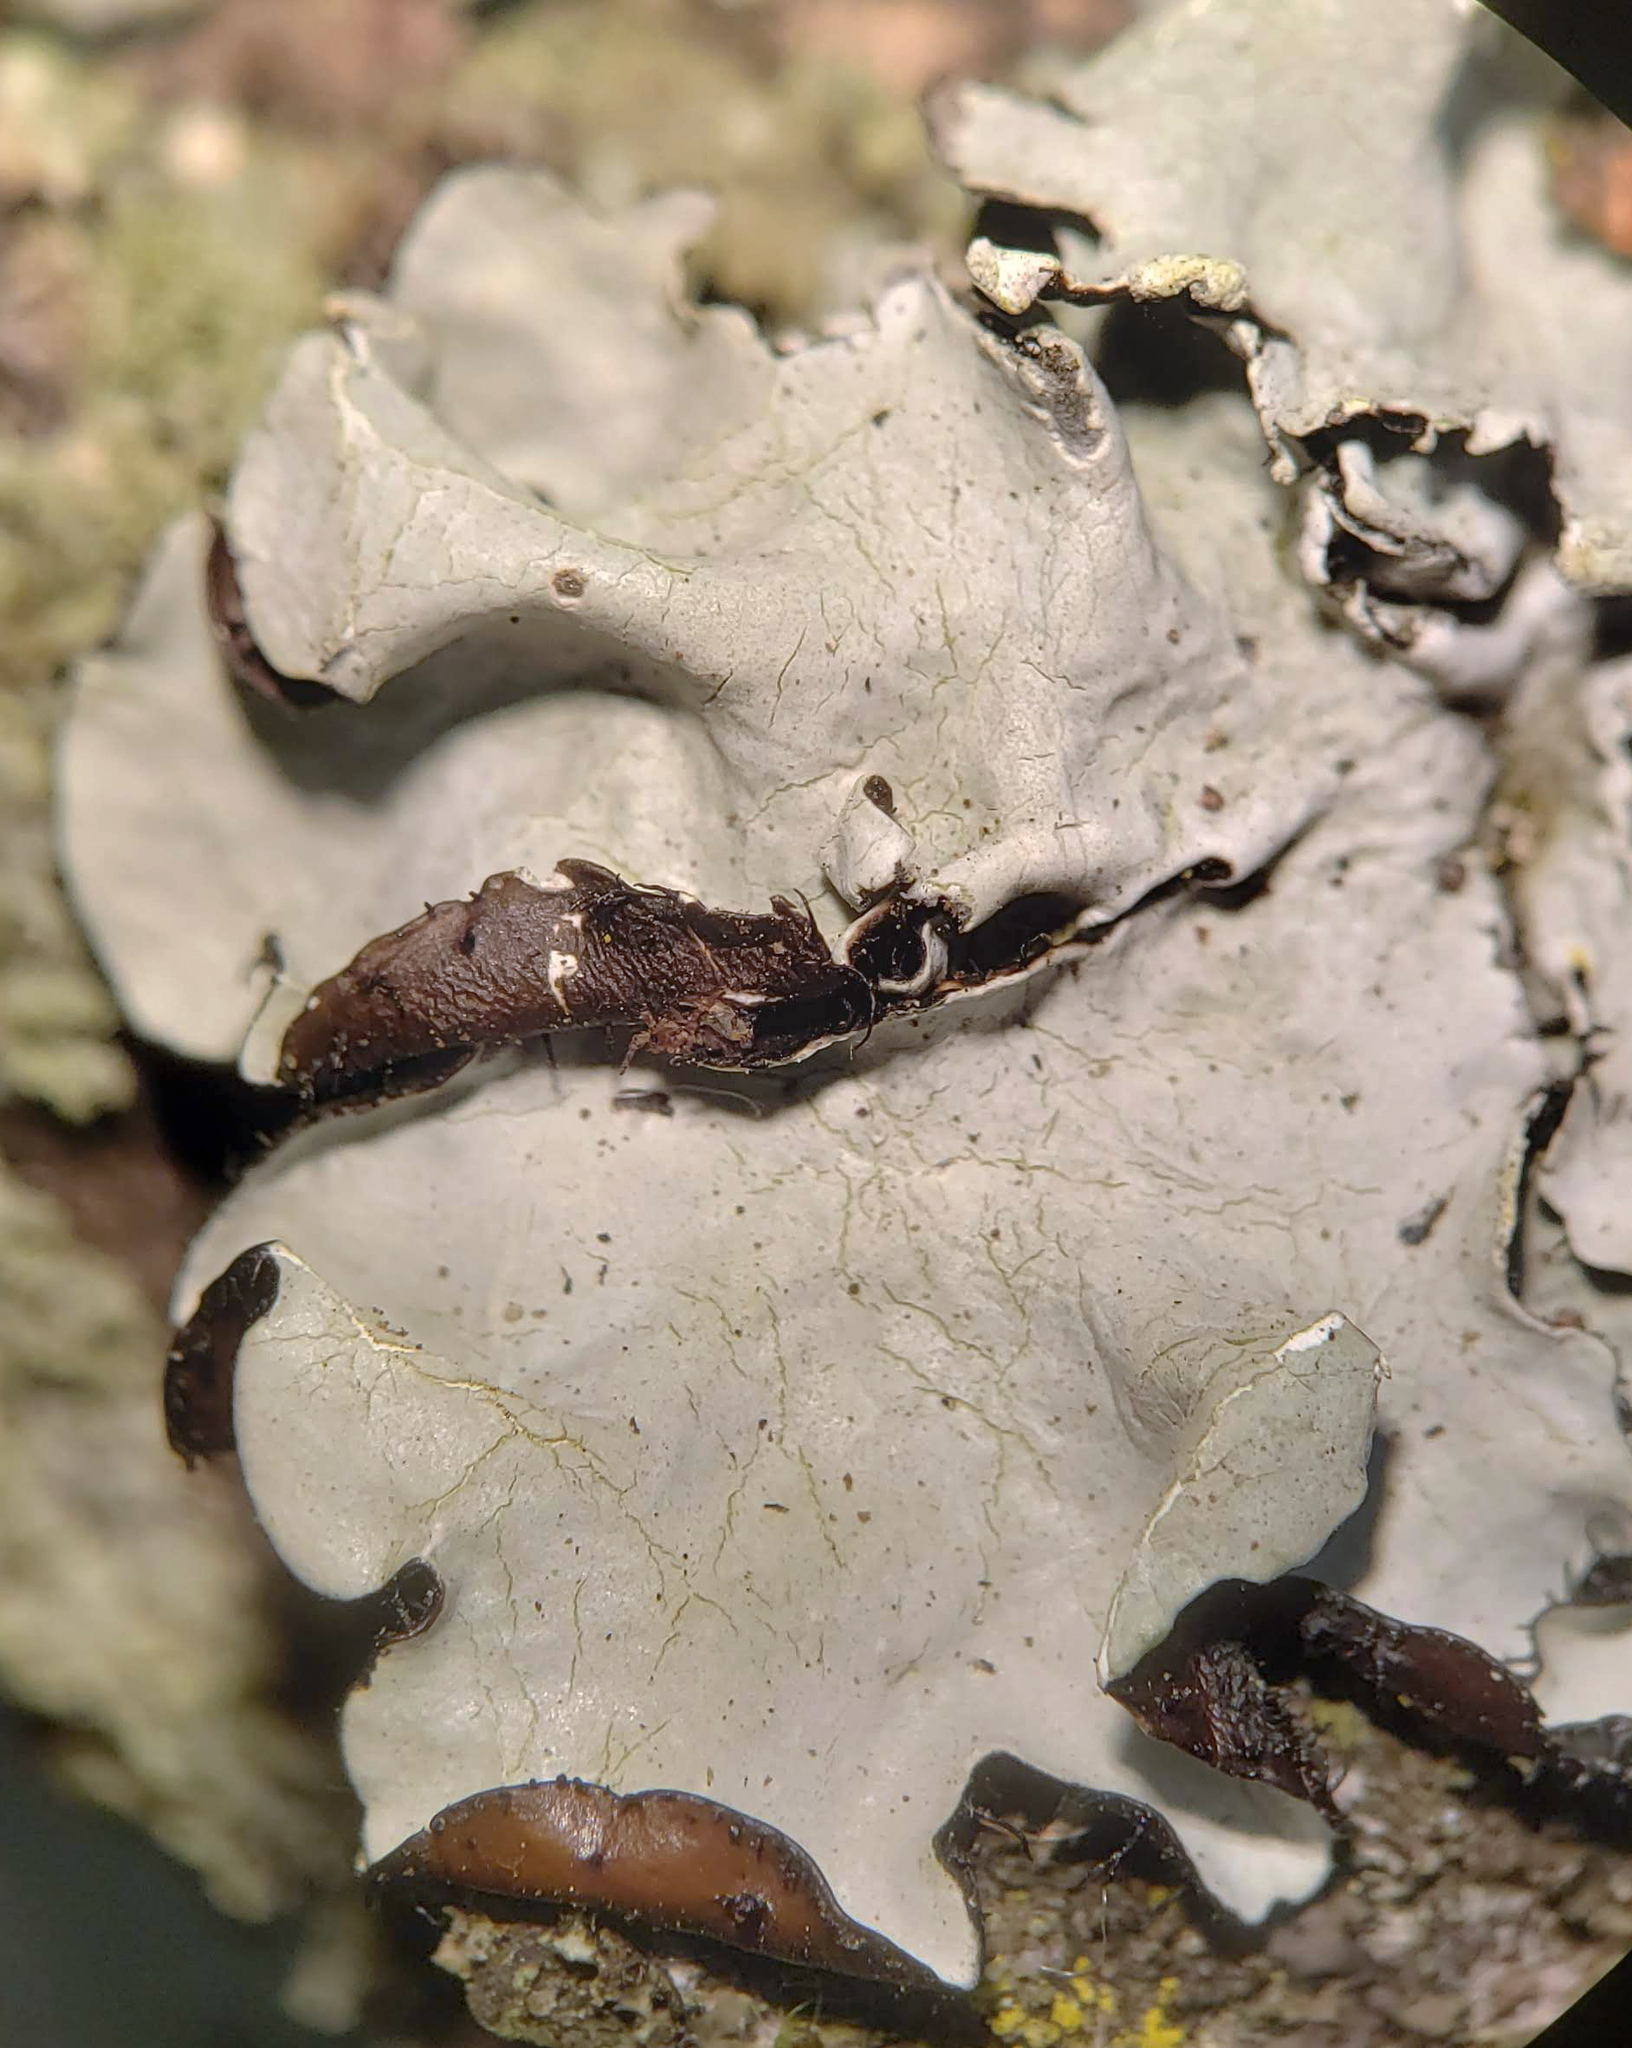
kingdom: Fungi
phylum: Ascomycota
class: Lecanoromycetes
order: Lecanorales
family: Parmeliaceae
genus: Parmotrema
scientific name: Parmotrema reticulatum
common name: Black sheet lichen
